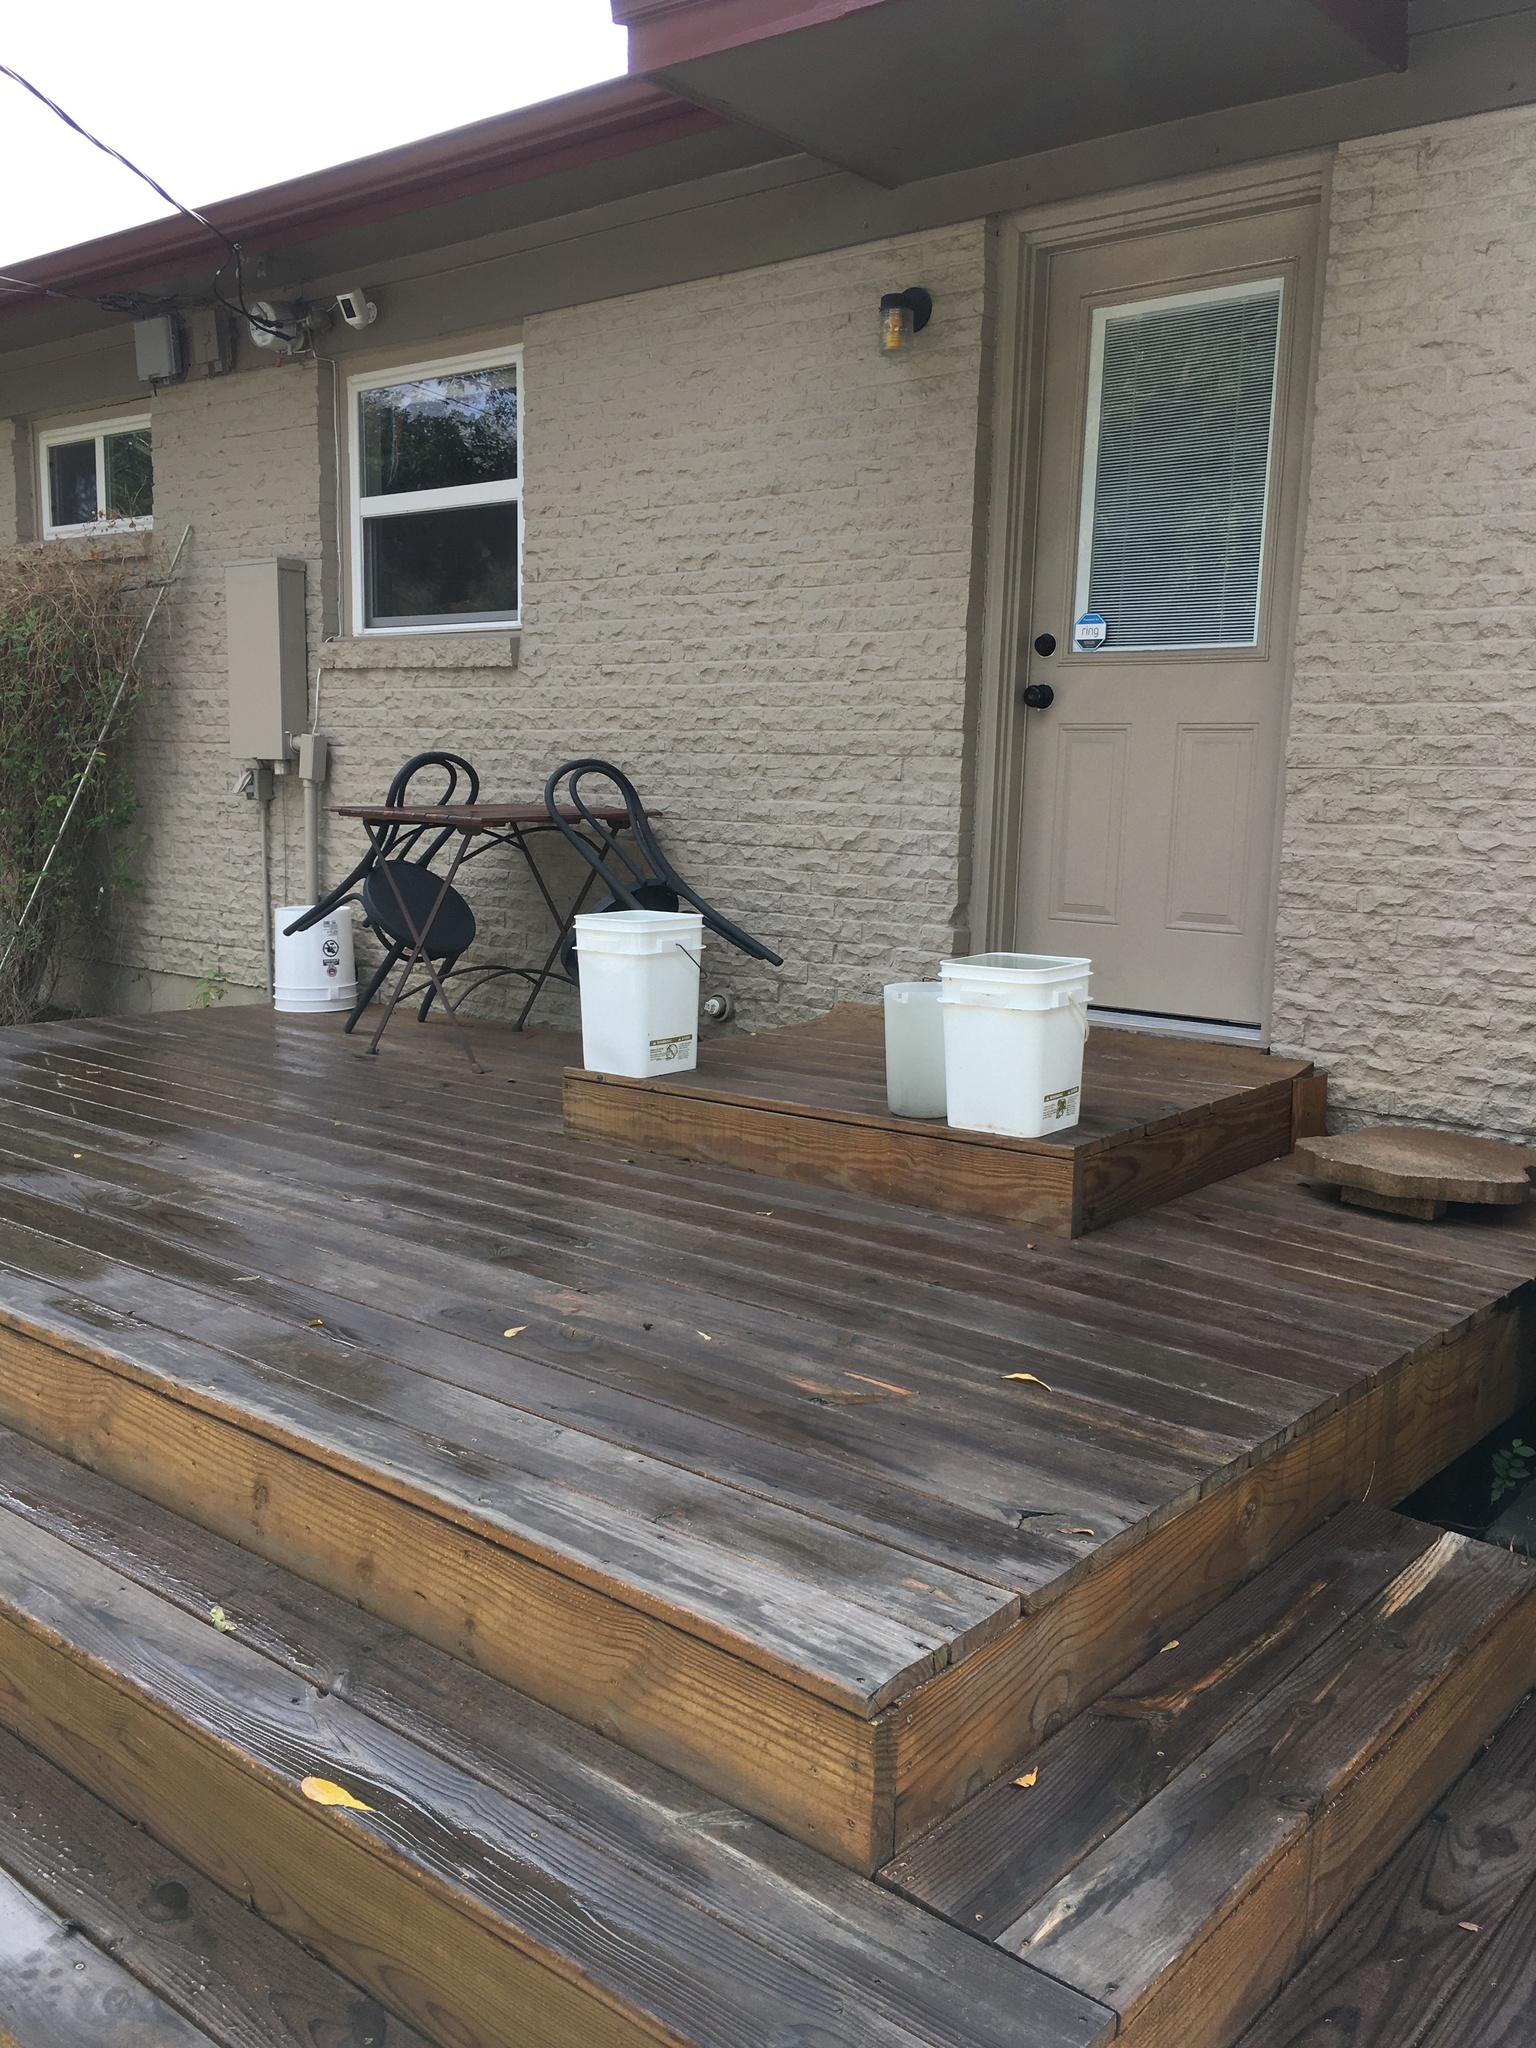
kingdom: Animalia
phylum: Chordata
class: Mammalia
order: Carnivora
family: Procyonidae
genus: Procyon
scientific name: Procyon lotor
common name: Raccoon
